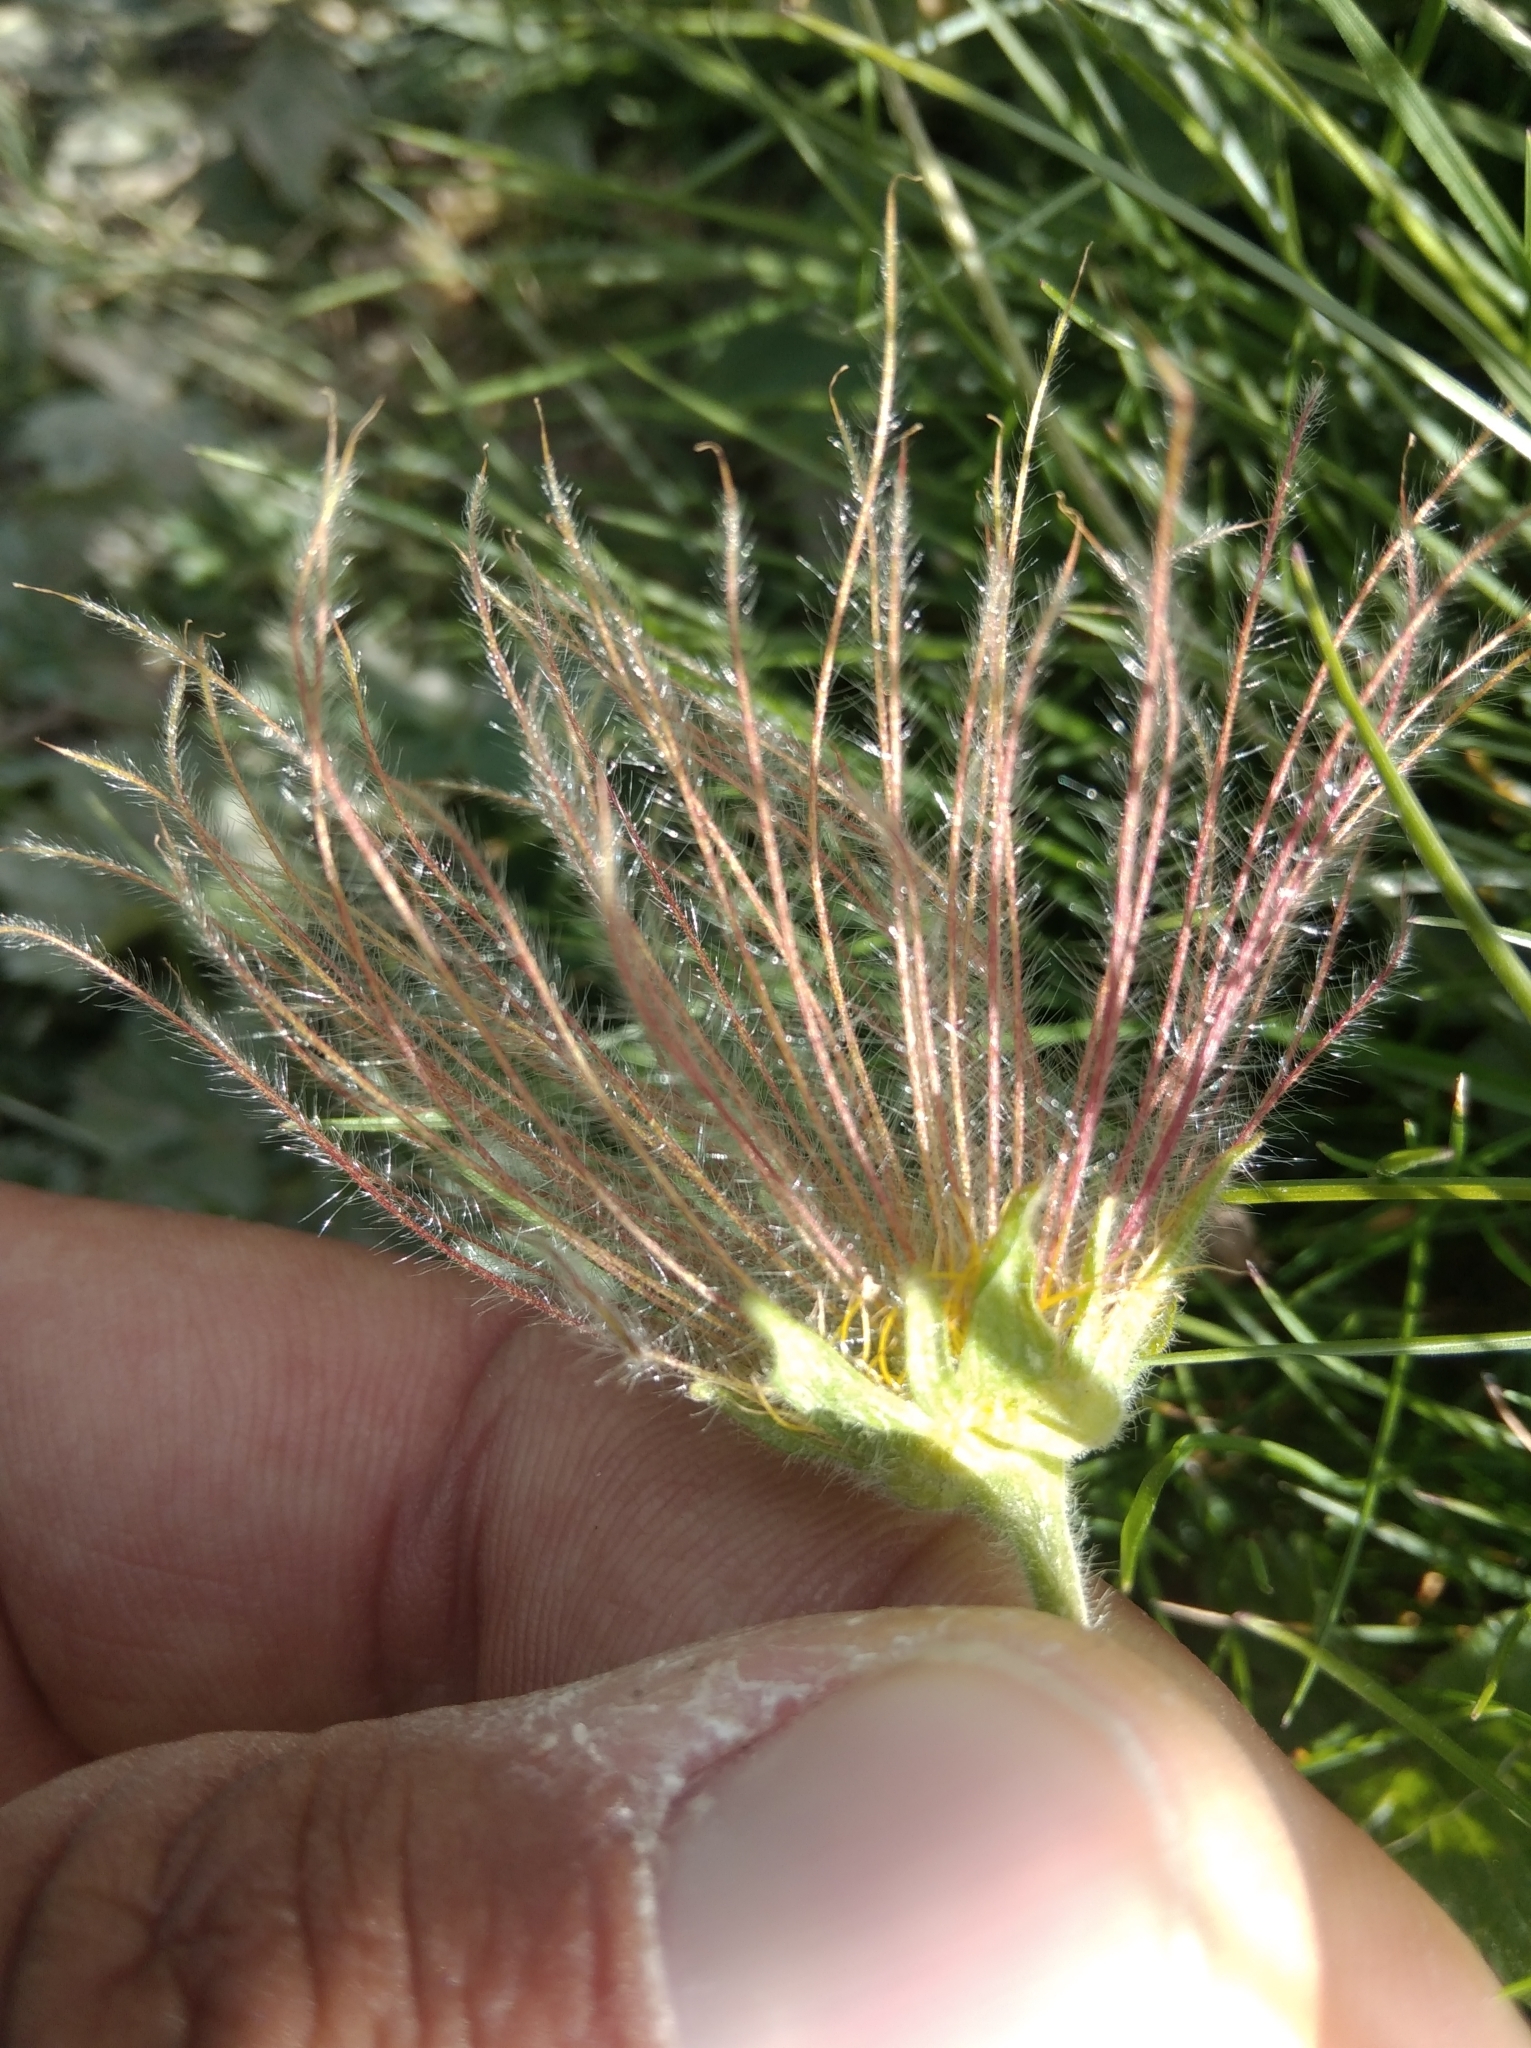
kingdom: Plantae
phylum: Tracheophyta
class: Magnoliopsida
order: Rosales
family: Rosaceae
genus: Geum
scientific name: Geum montanum
